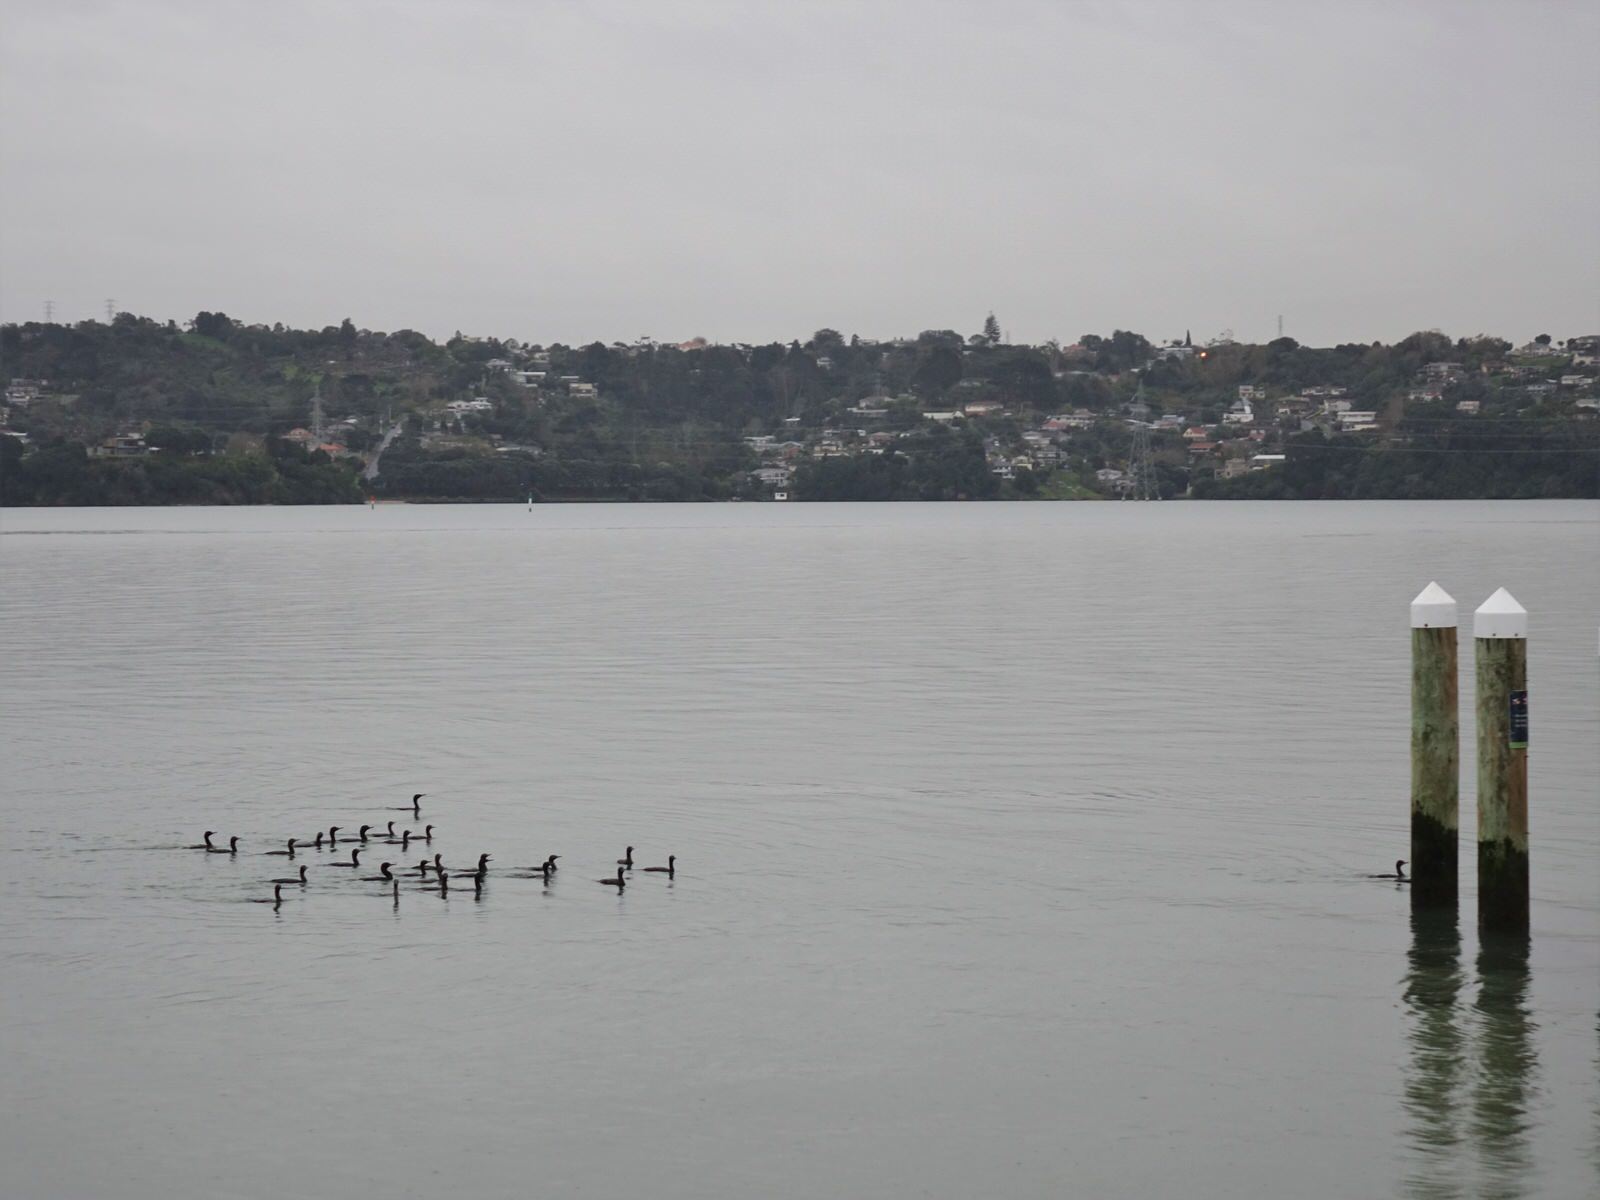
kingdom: Animalia
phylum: Chordata
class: Aves
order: Suliformes
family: Phalacrocoracidae
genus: Phalacrocorax
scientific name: Phalacrocorax sulcirostris
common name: Little black cormorant
